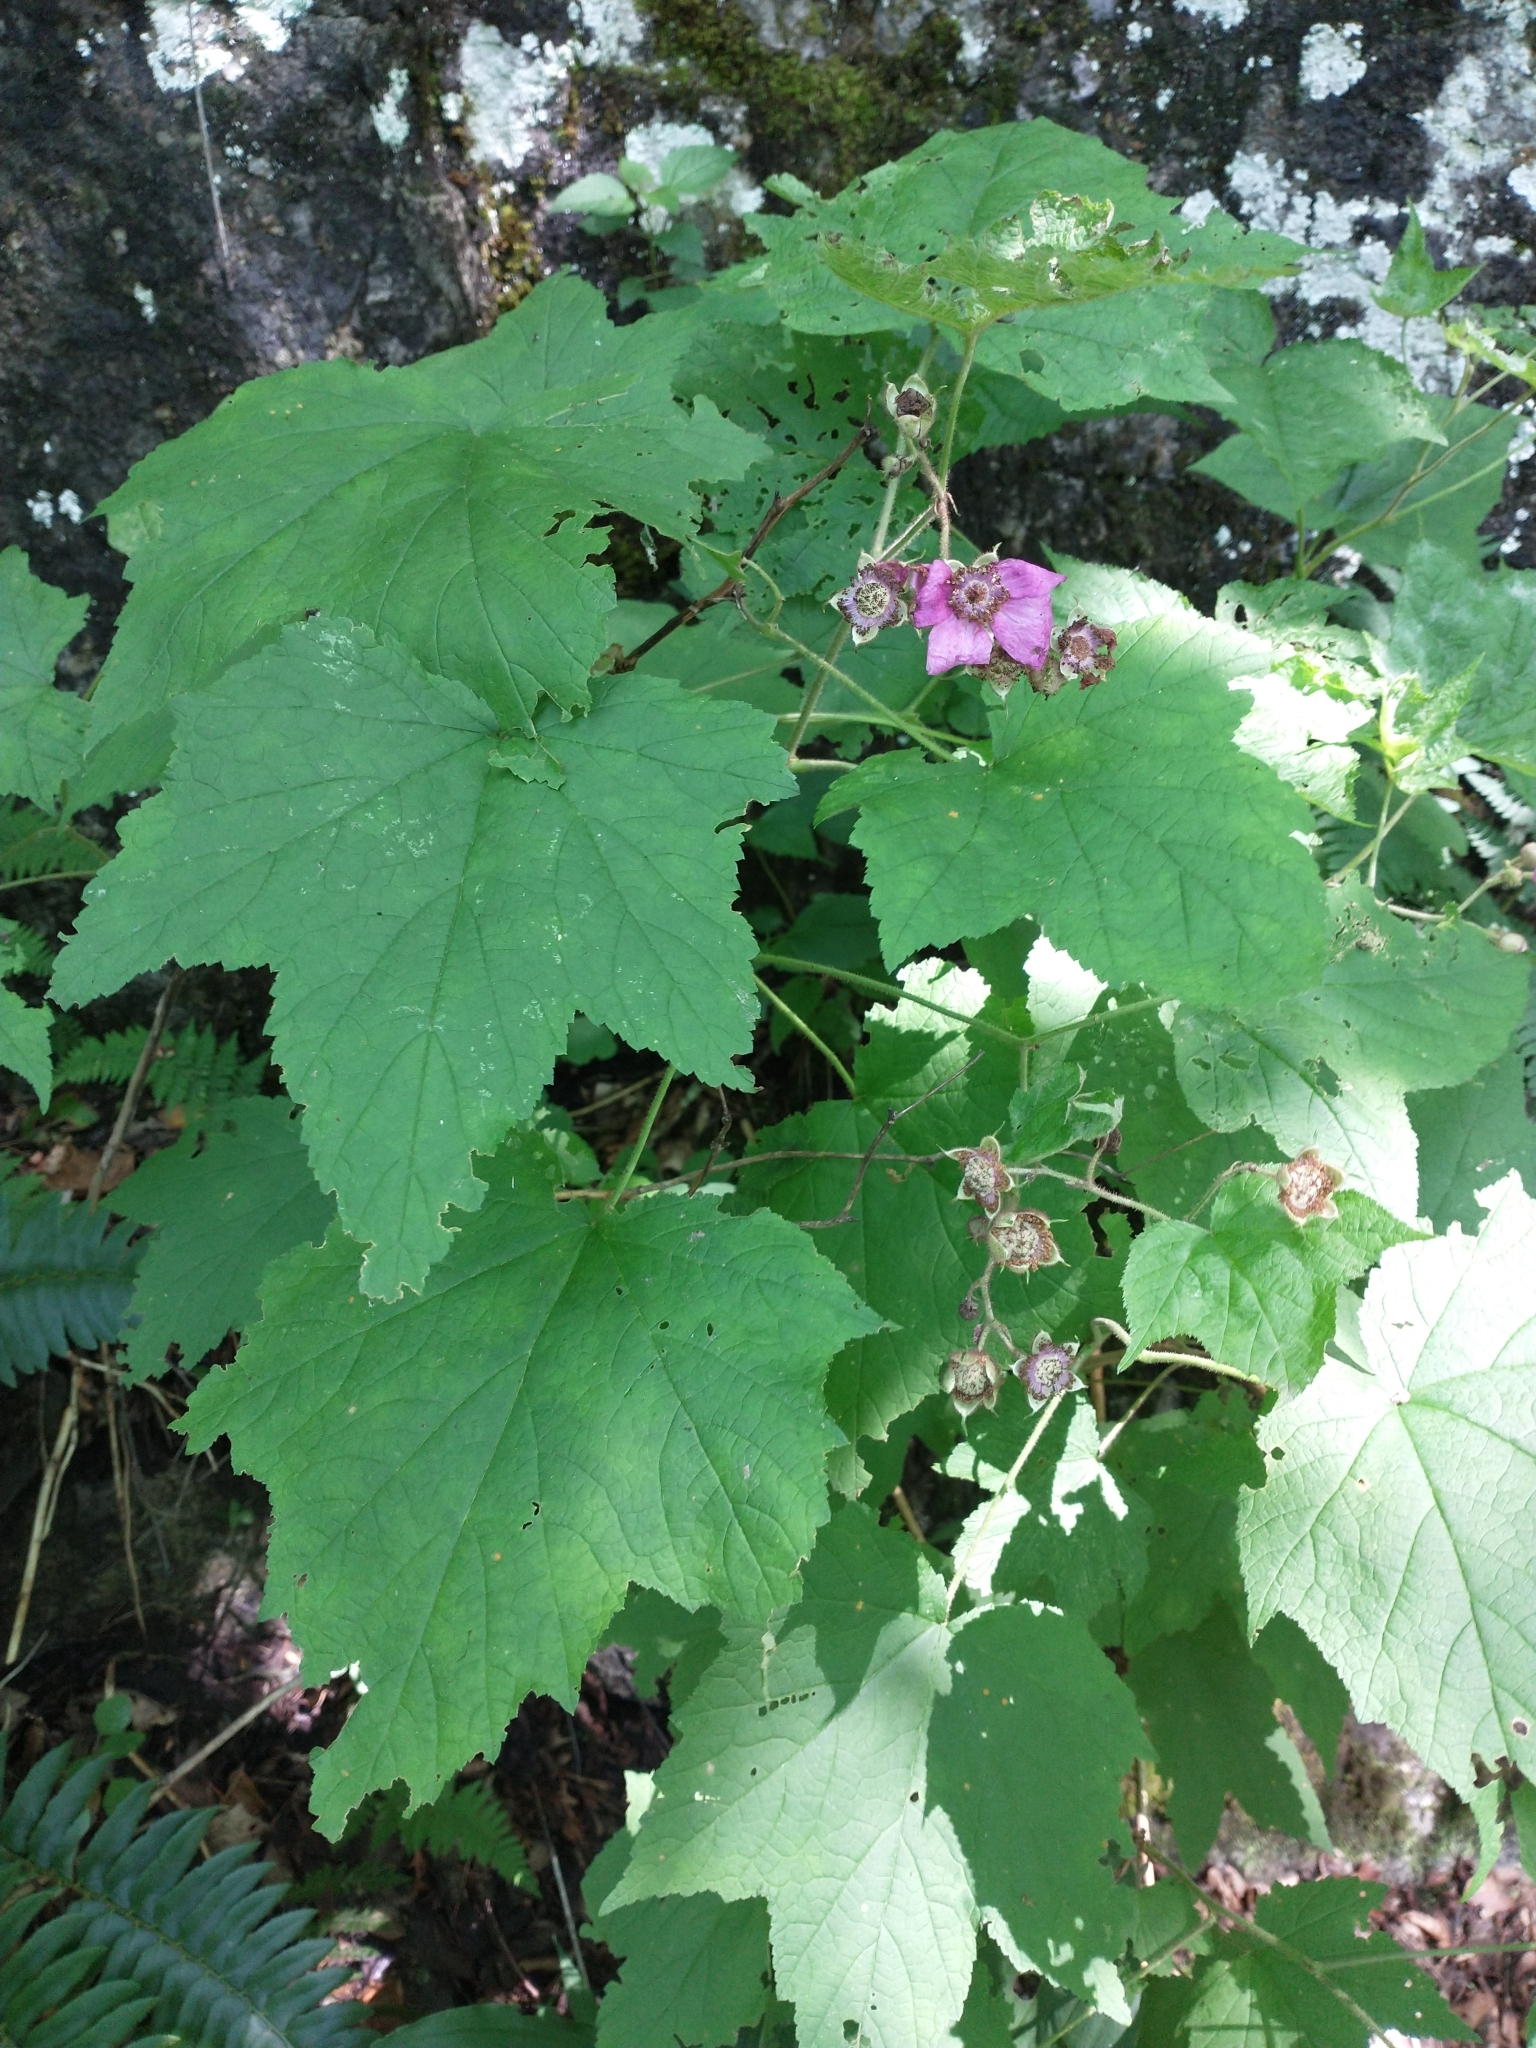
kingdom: Plantae
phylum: Tracheophyta
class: Magnoliopsida
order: Rosales
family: Rosaceae
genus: Rubus
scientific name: Rubus odoratus
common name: Purple-flowered raspberry
